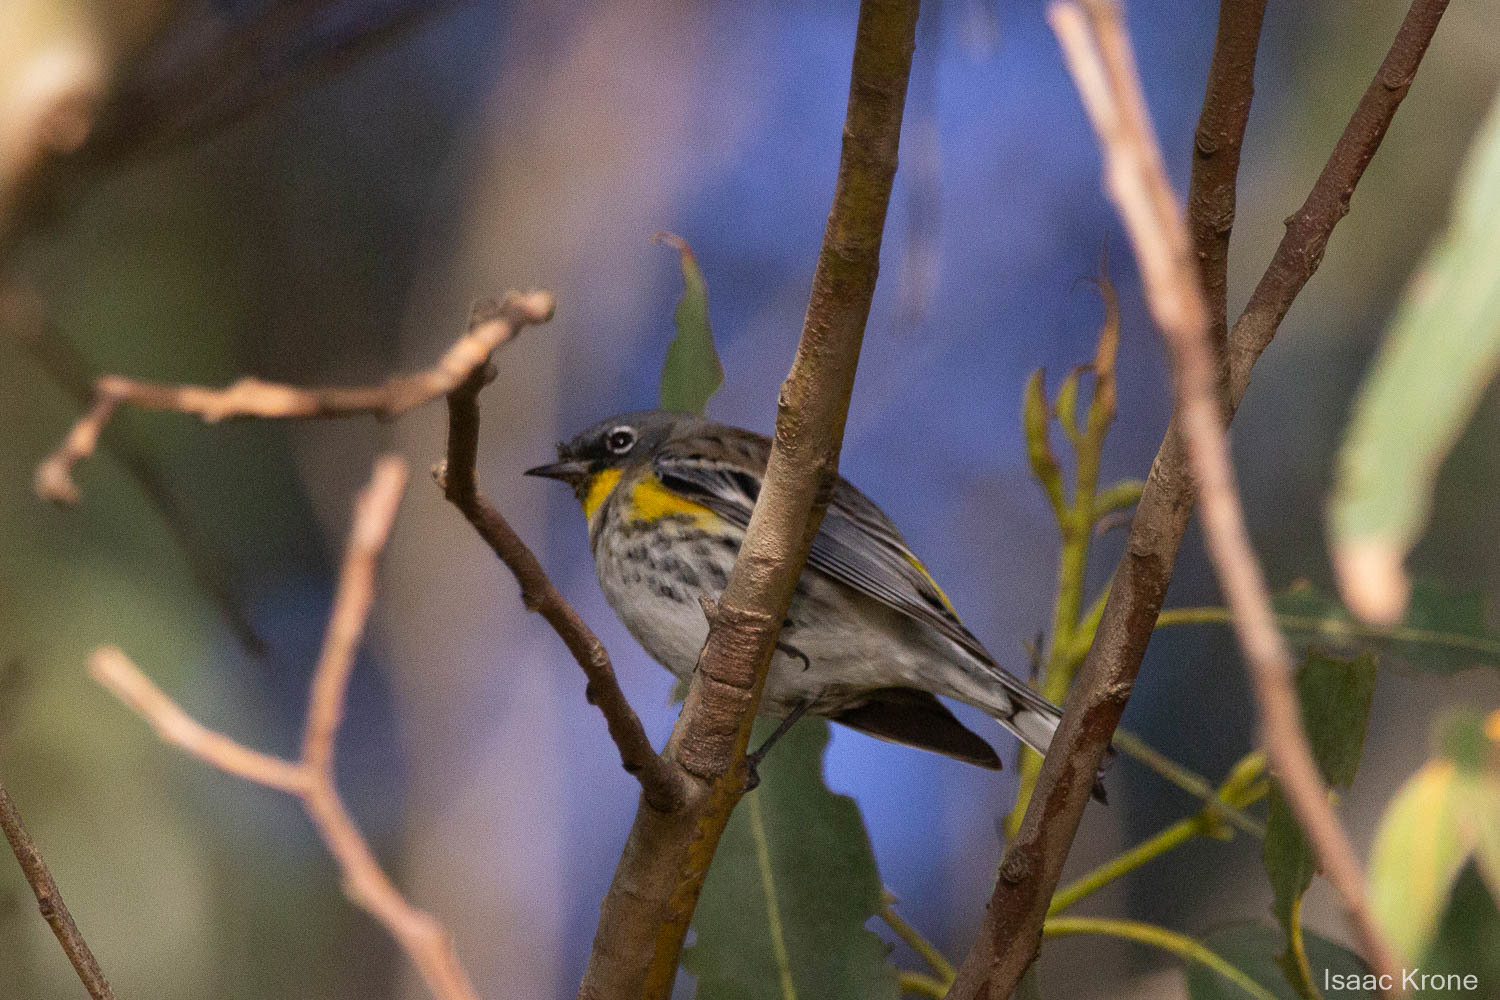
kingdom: Animalia
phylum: Chordata
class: Aves
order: Passeriformes
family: Parulidae
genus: Setophaga
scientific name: Setophaga coronata
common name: Myrtle warbler
